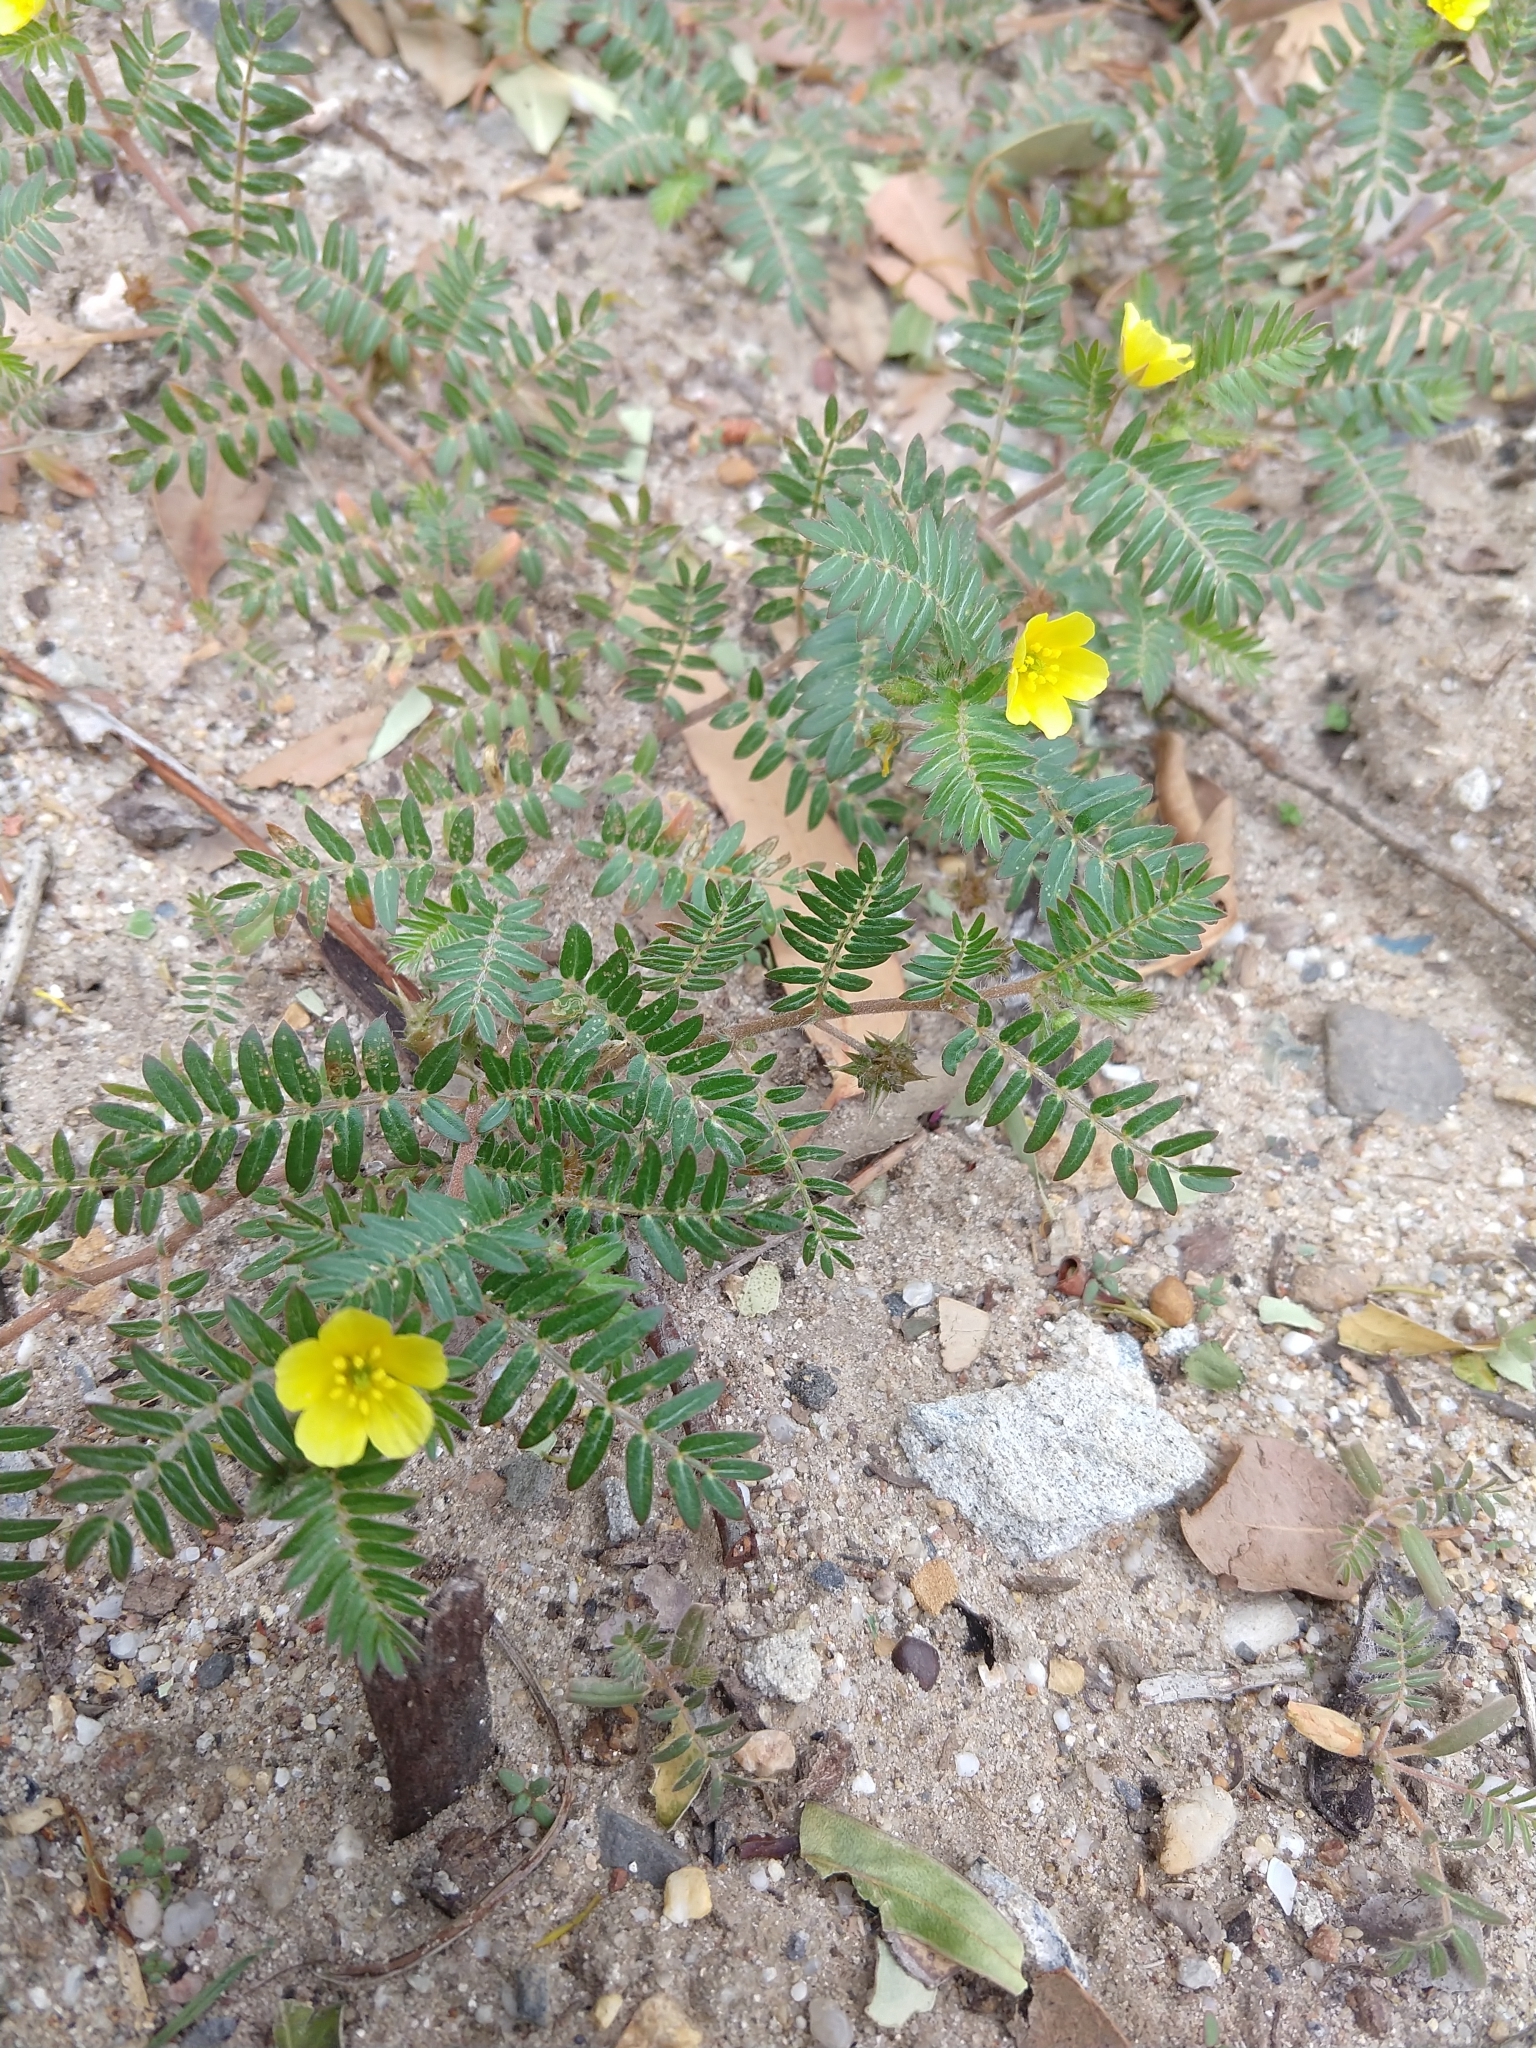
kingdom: Plantae
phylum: Tracheophyta
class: Magnoliopsida
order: Zygophyllales
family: Zygophyllaceae
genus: Tribulus
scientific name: Tribulus terrestris
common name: Puncturevine
